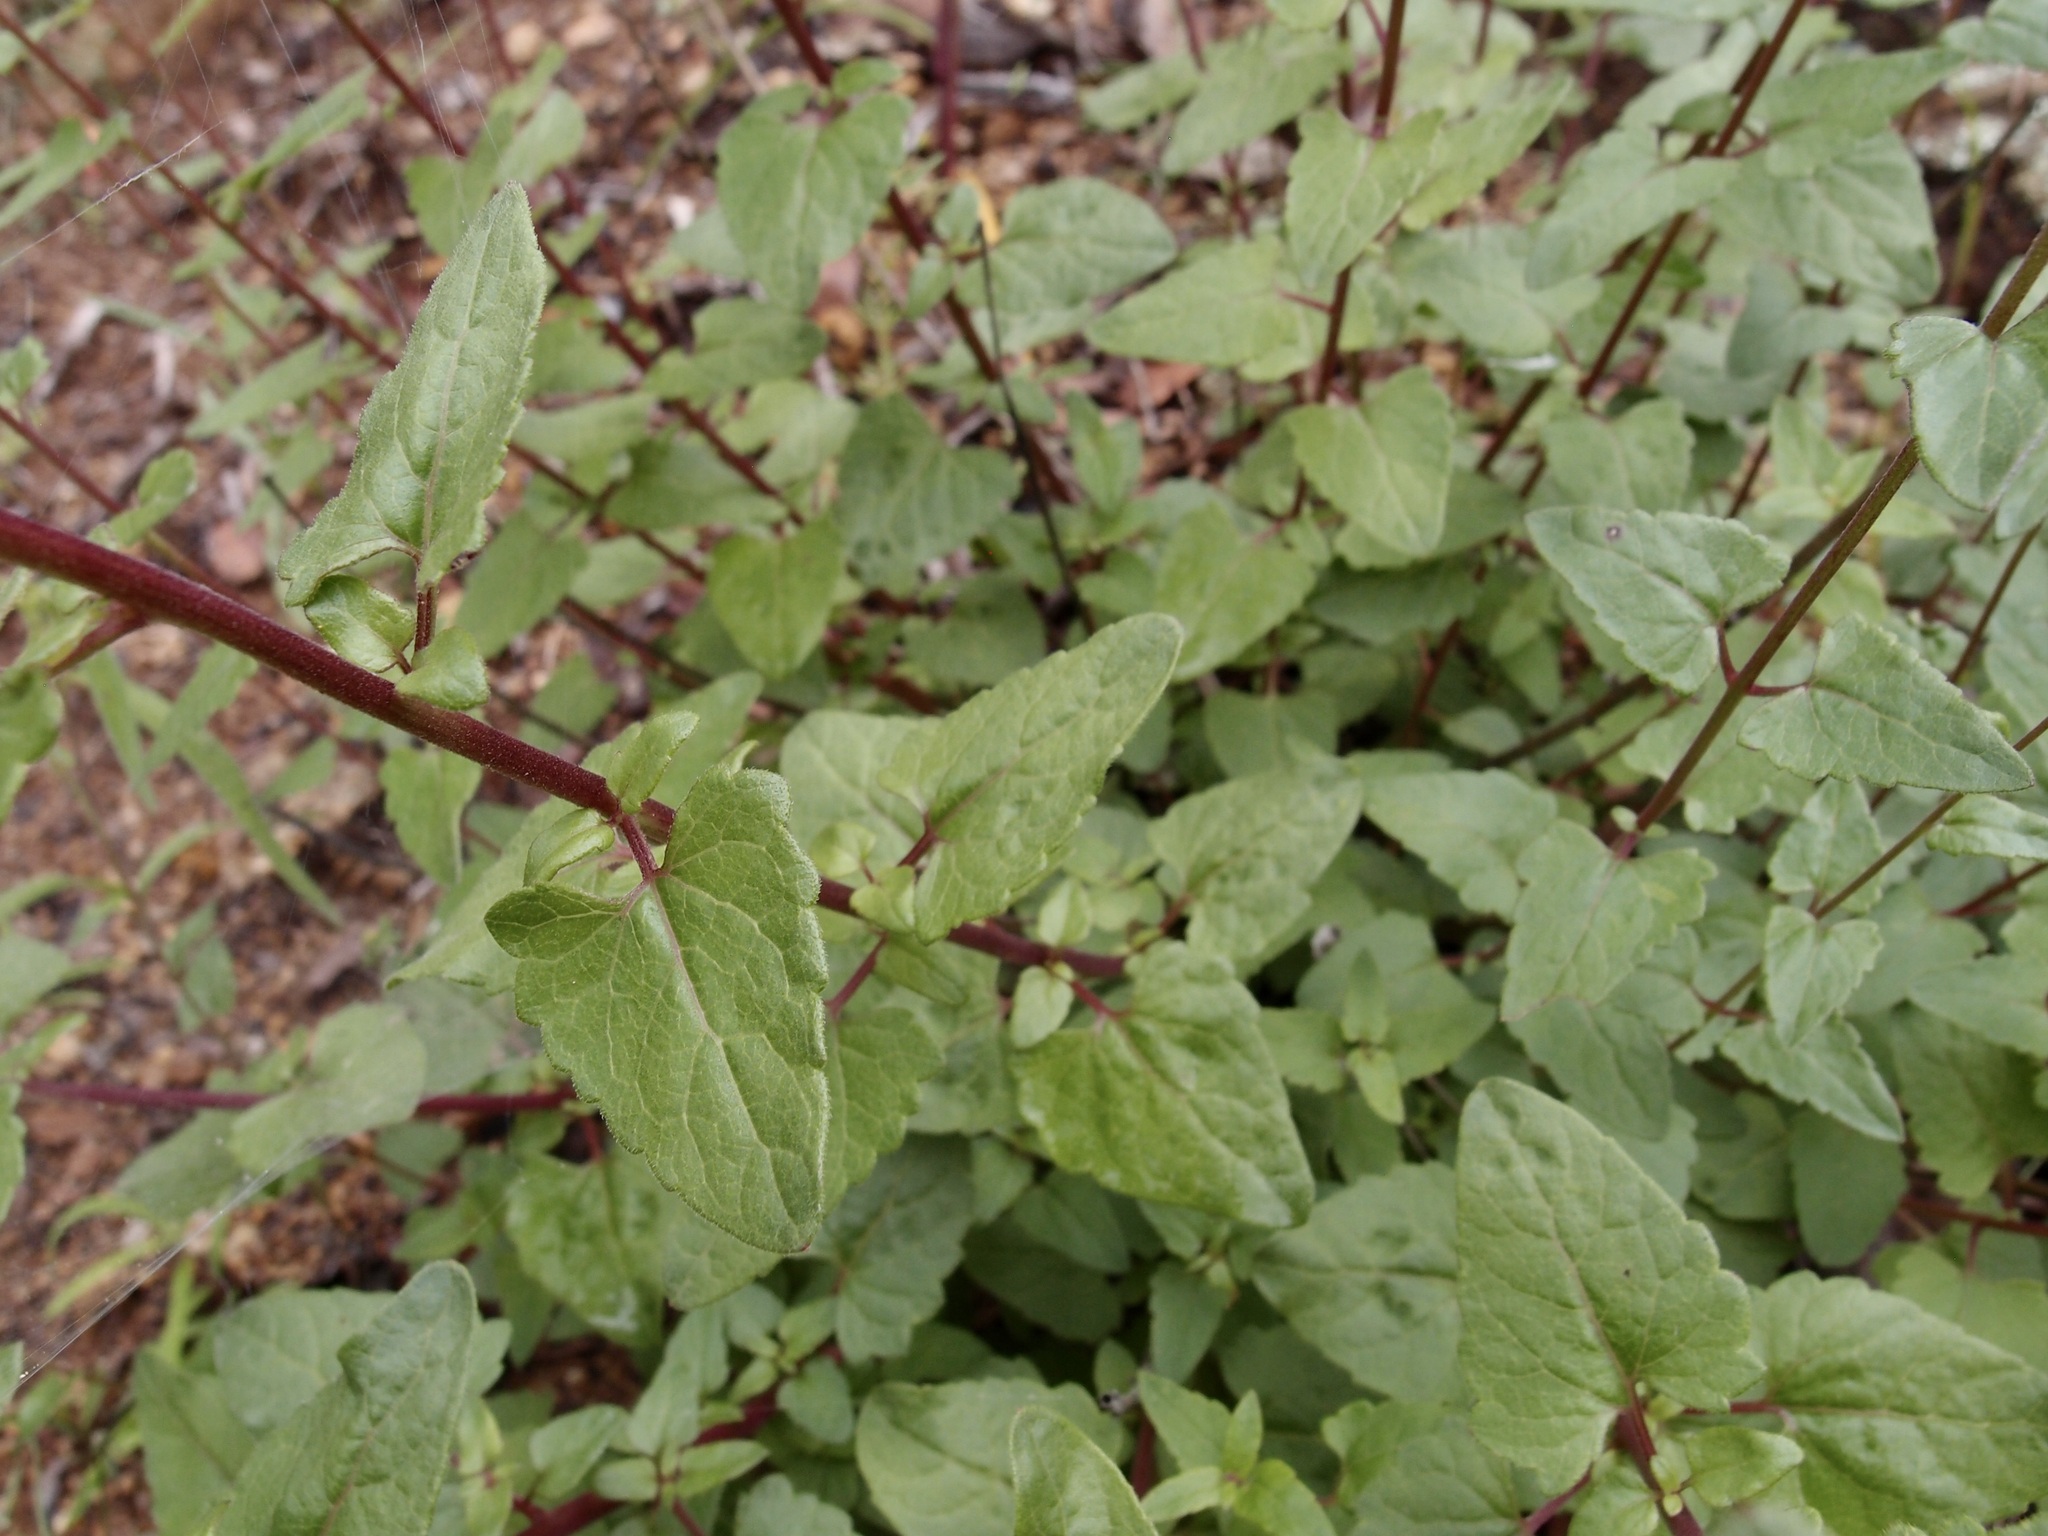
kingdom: Plantae
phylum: Tracheophyta
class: Magnoliopsida
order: Asterales
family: Asteraceae
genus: Brickellia
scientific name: Brickellia simplex
